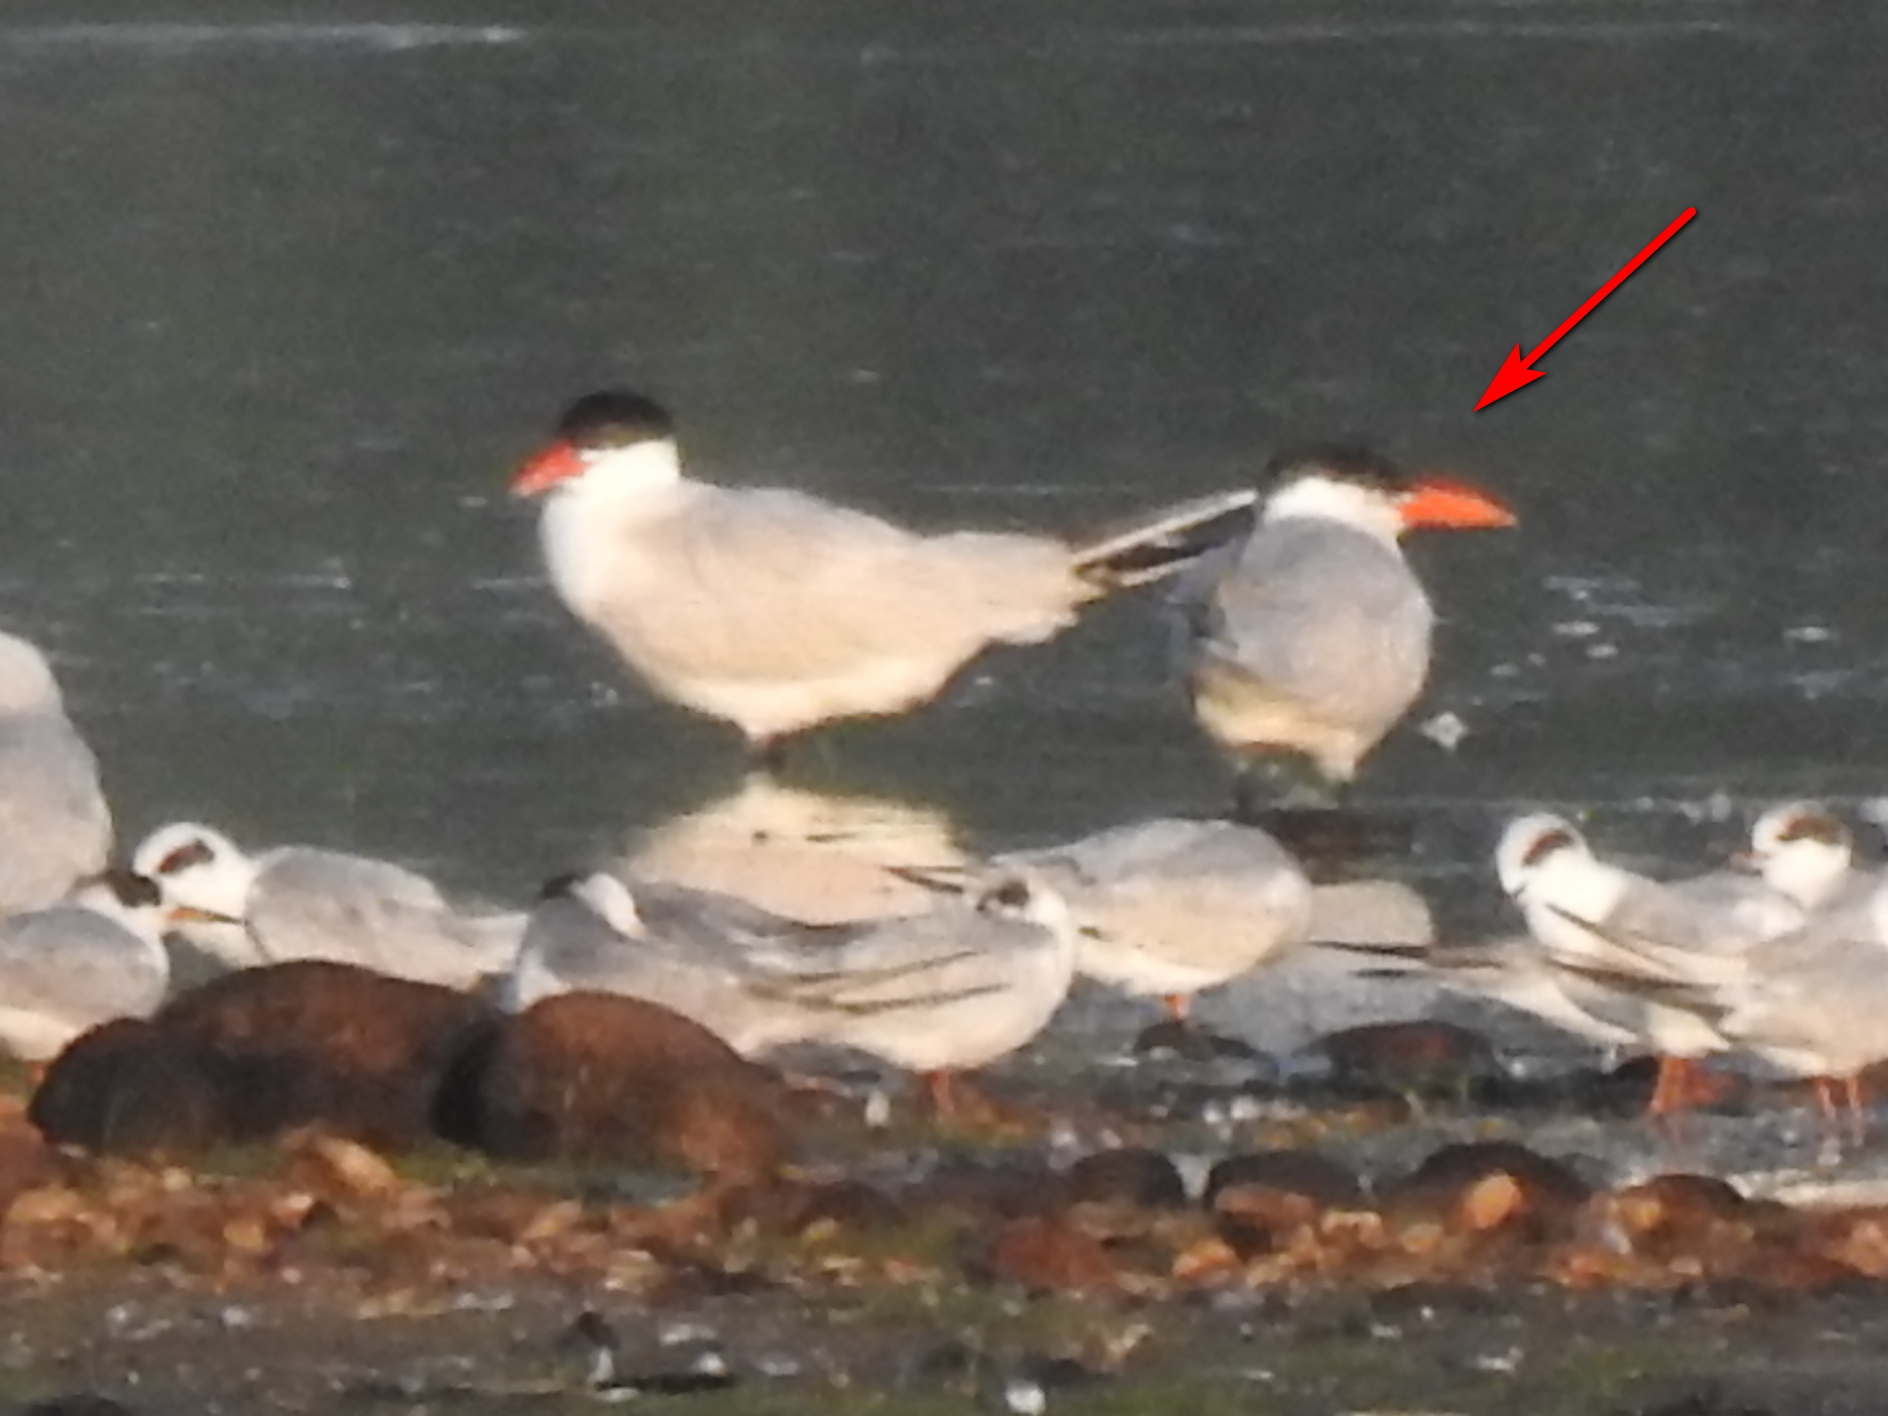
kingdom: Animalia
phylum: Chordata
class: Aves
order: Charadriiformes
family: Laridae
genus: Hydroprogne
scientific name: Hydroprogne caspia
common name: Caspian tern
